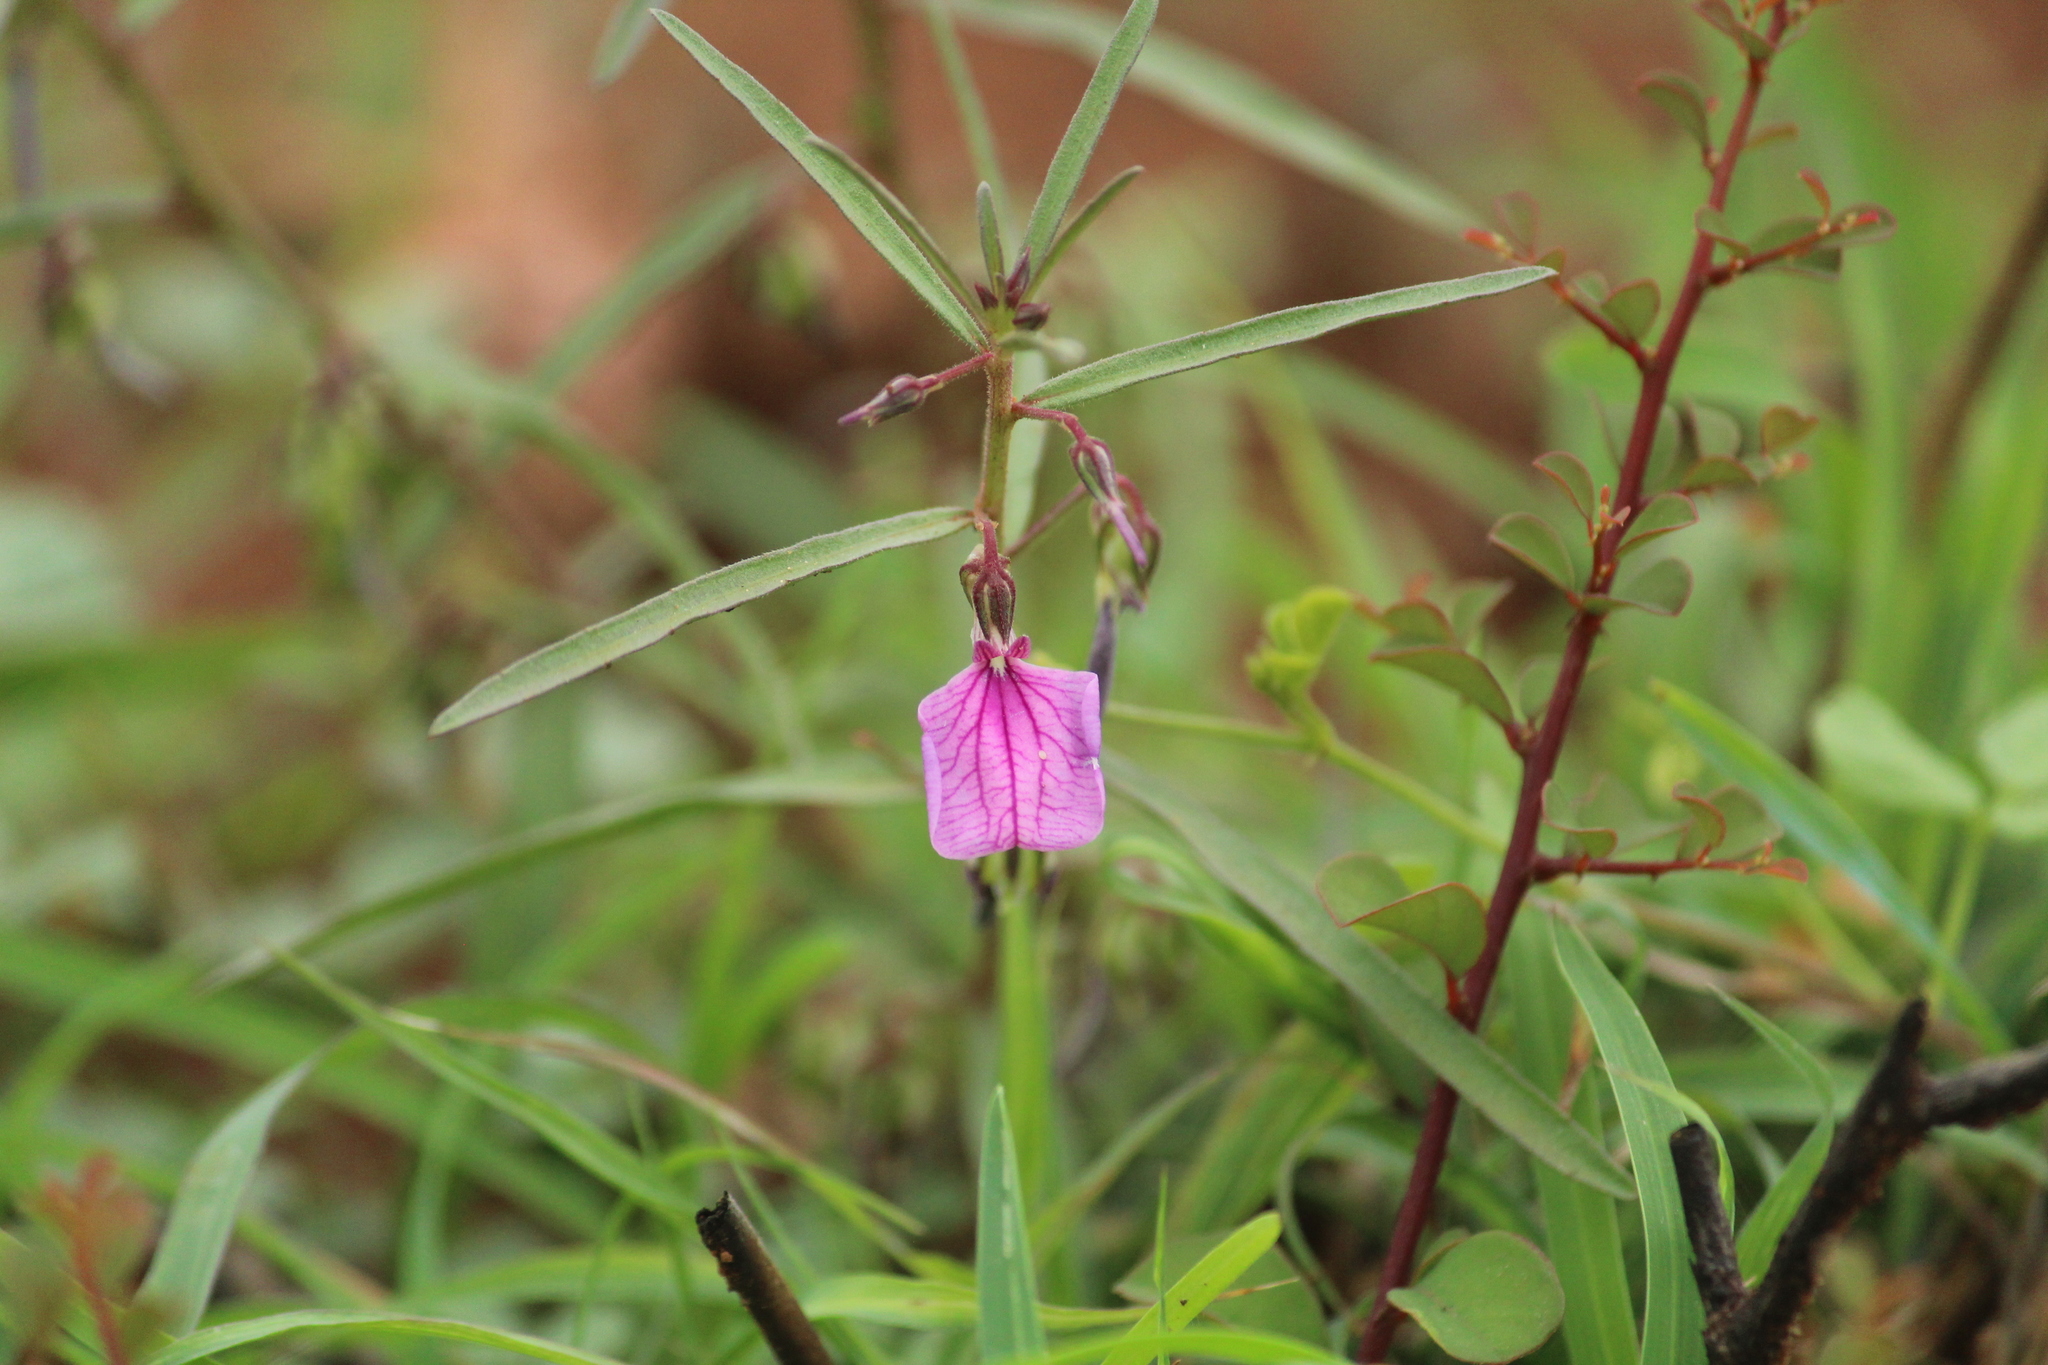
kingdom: Plantae
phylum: Tracheophyta
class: Magnoliopsida
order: Malpighiales
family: Violaceae
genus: Pigea
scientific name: Pigea enneasperma
